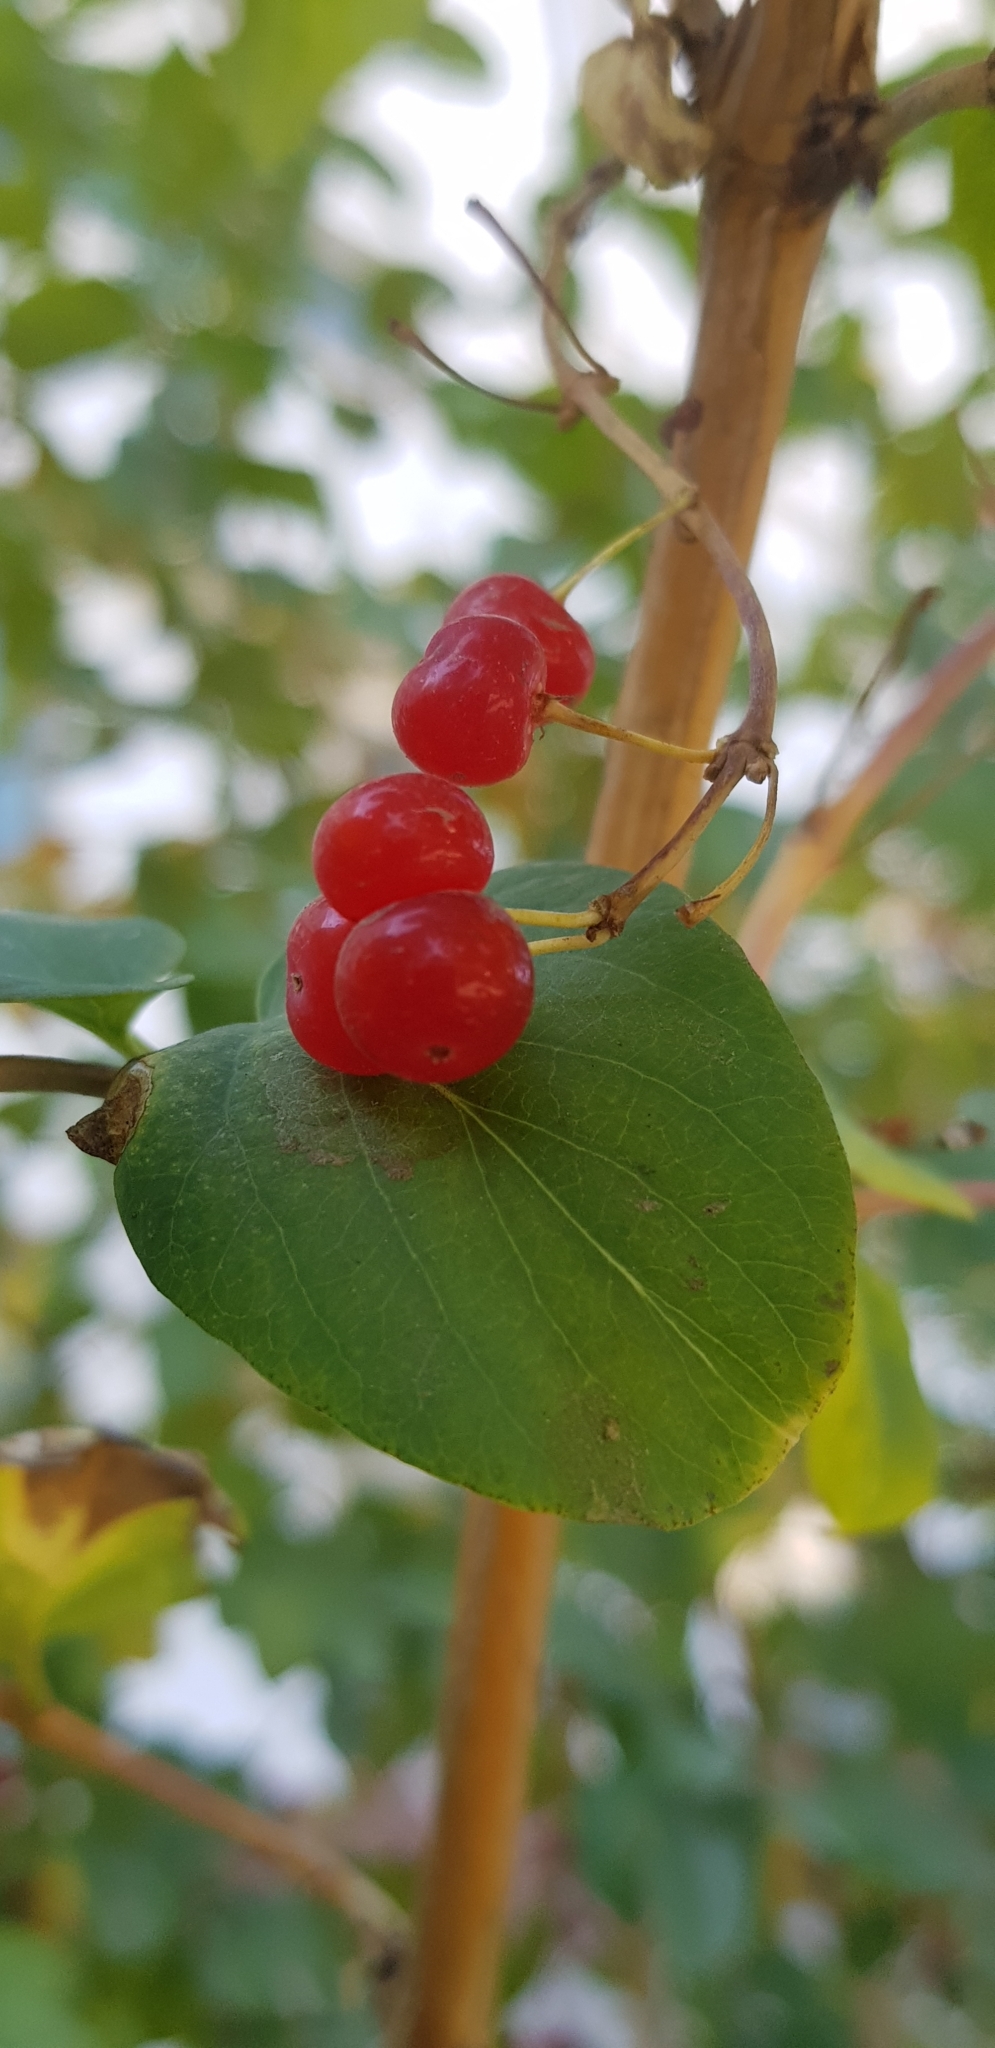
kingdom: Plantae
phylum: Tracheophyta
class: Magnoliopsida
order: Dipsacales
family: Caprifoliaceae
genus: Lonicera
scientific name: Lonicera tatarica
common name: Tatarian honeysuckle
